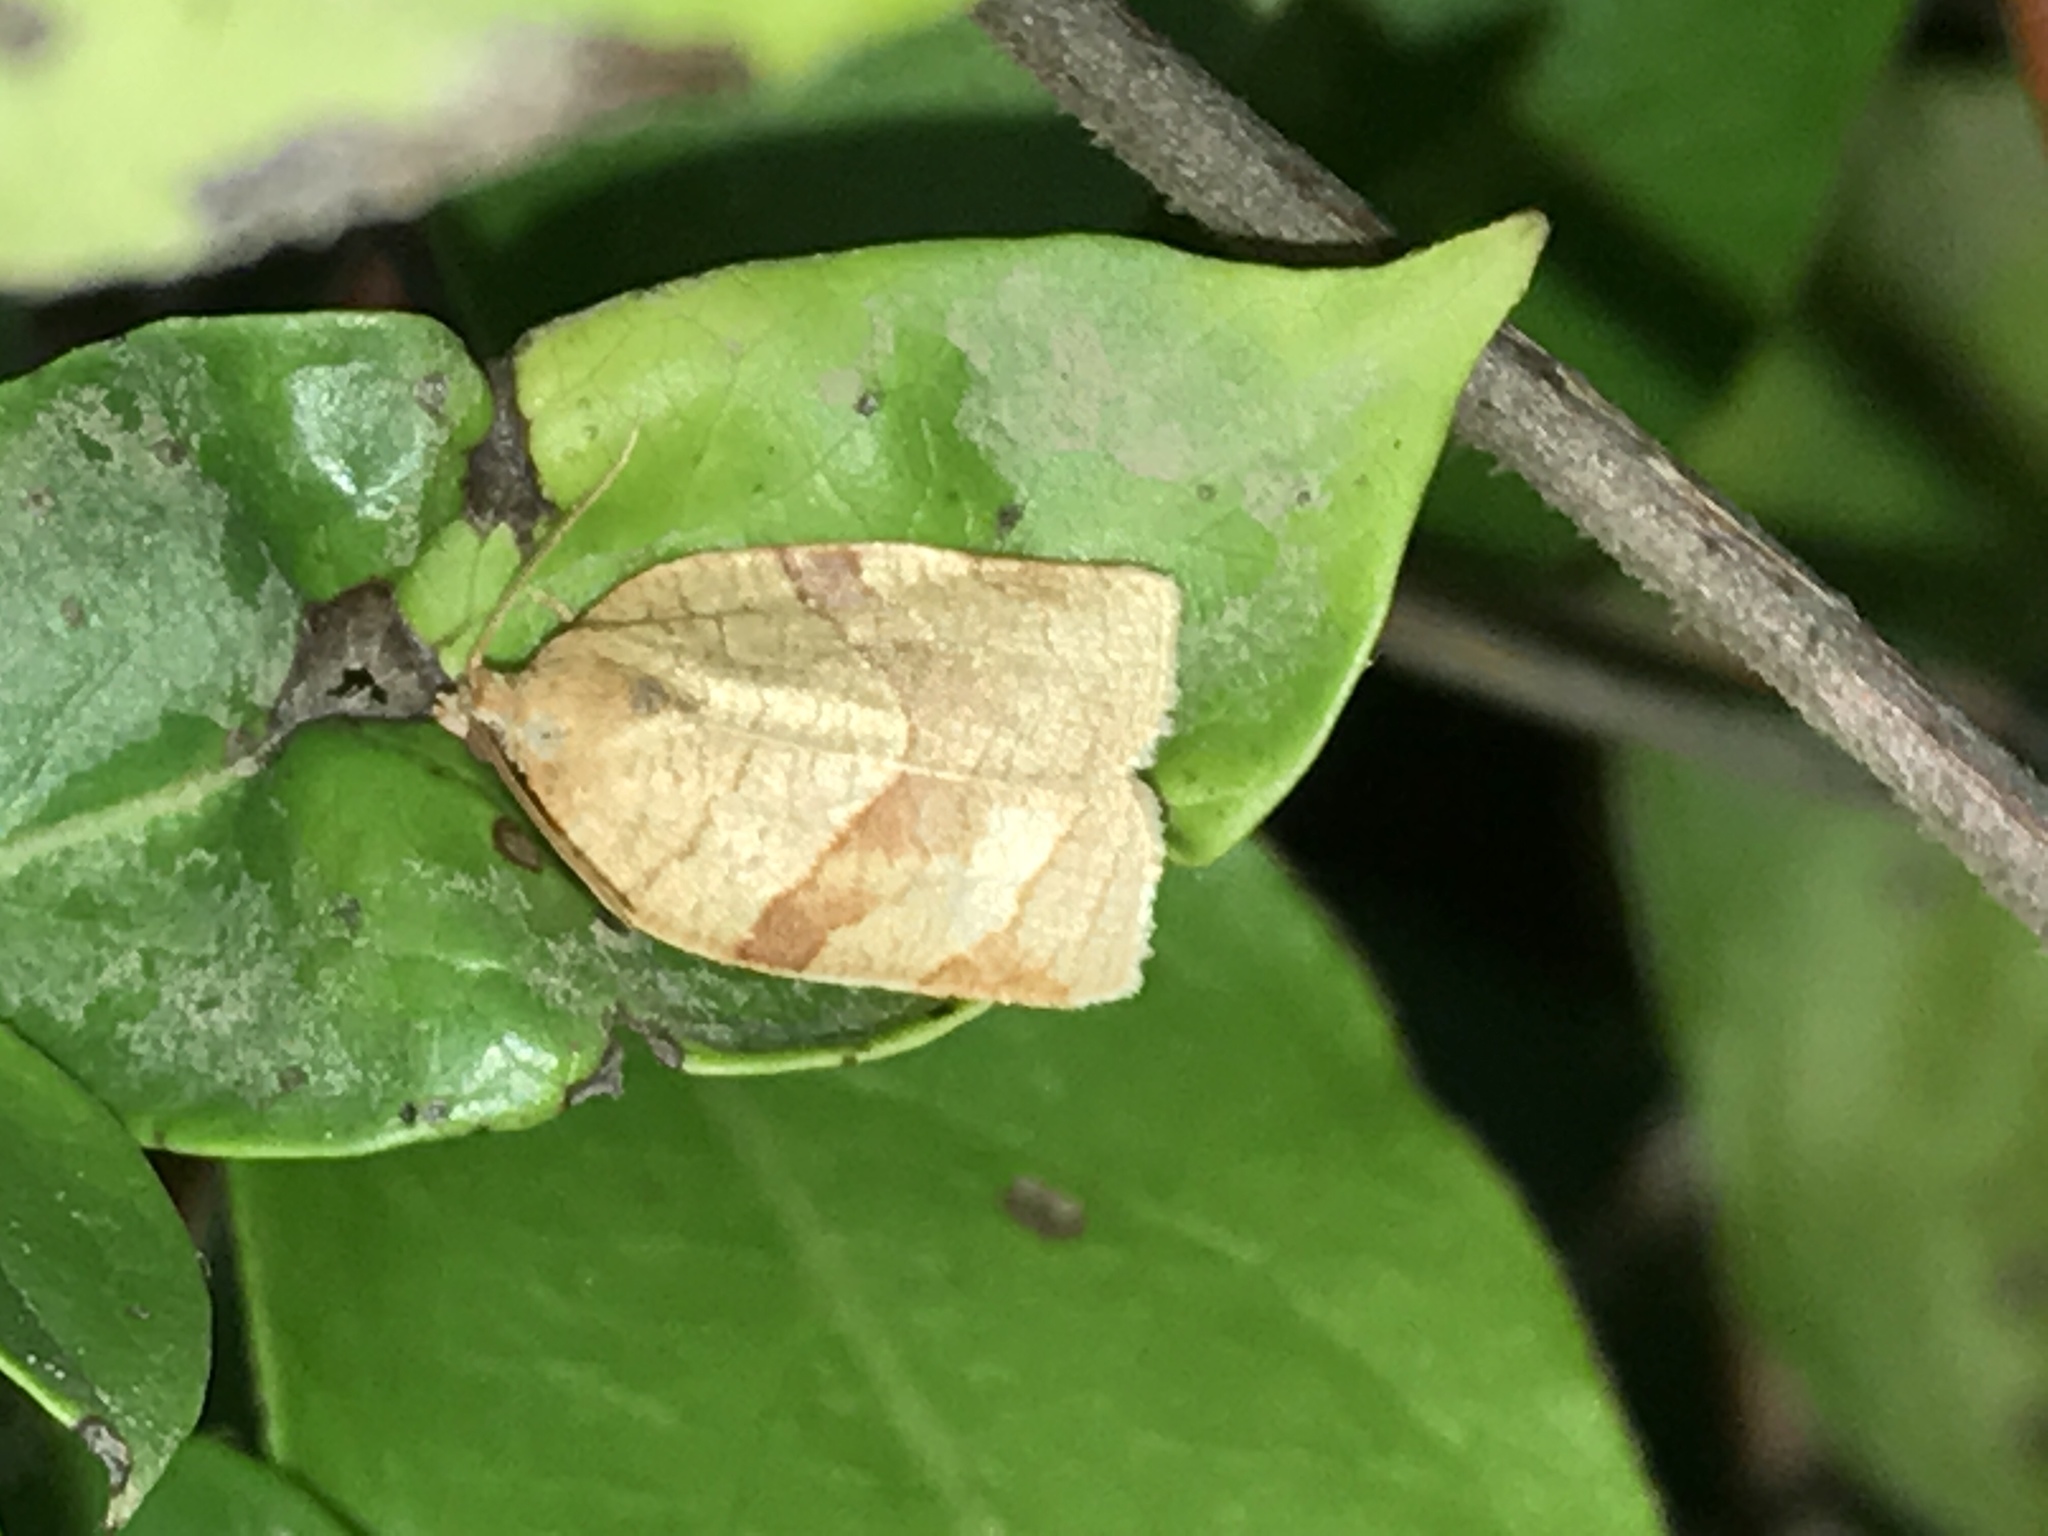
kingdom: Animalia
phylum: Arthropoda
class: Insecta
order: Lepidoptera
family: Tortricidae
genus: Choristoneura
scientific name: Choristoneura rosaceana
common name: Oblique-banded leafroller moth
